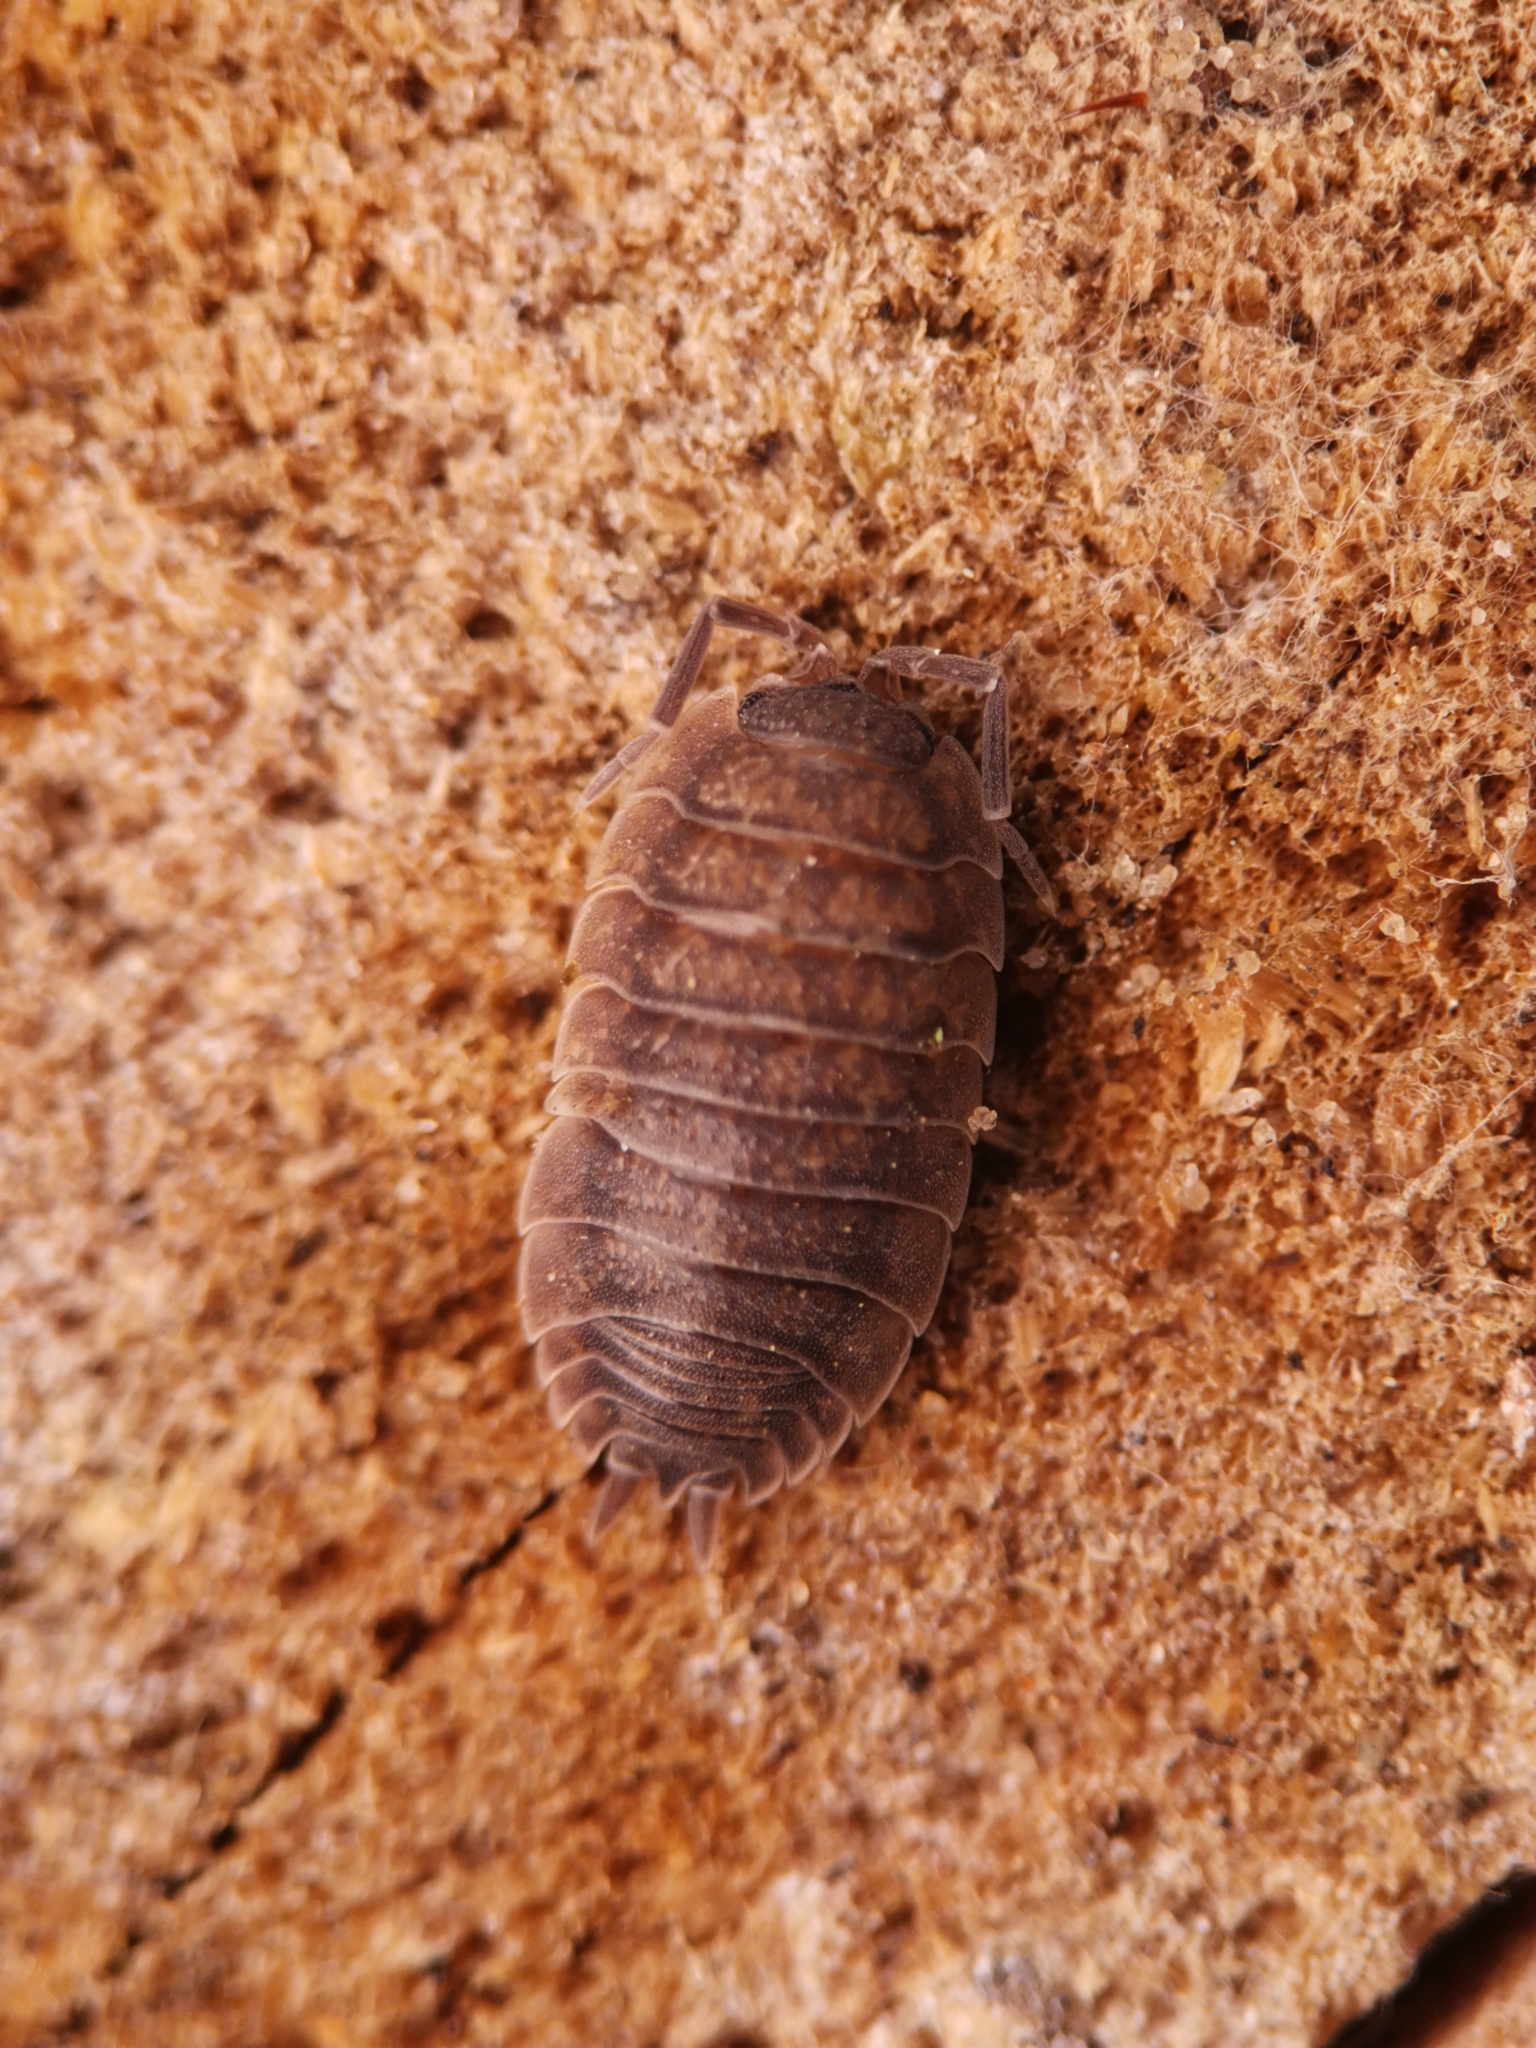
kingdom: Animalia
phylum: Arthropoda
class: Malacostraca
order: Isopoda
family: Porcellionidae
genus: Porcellio
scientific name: Porcellio scaber
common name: Common rough woodlouse
